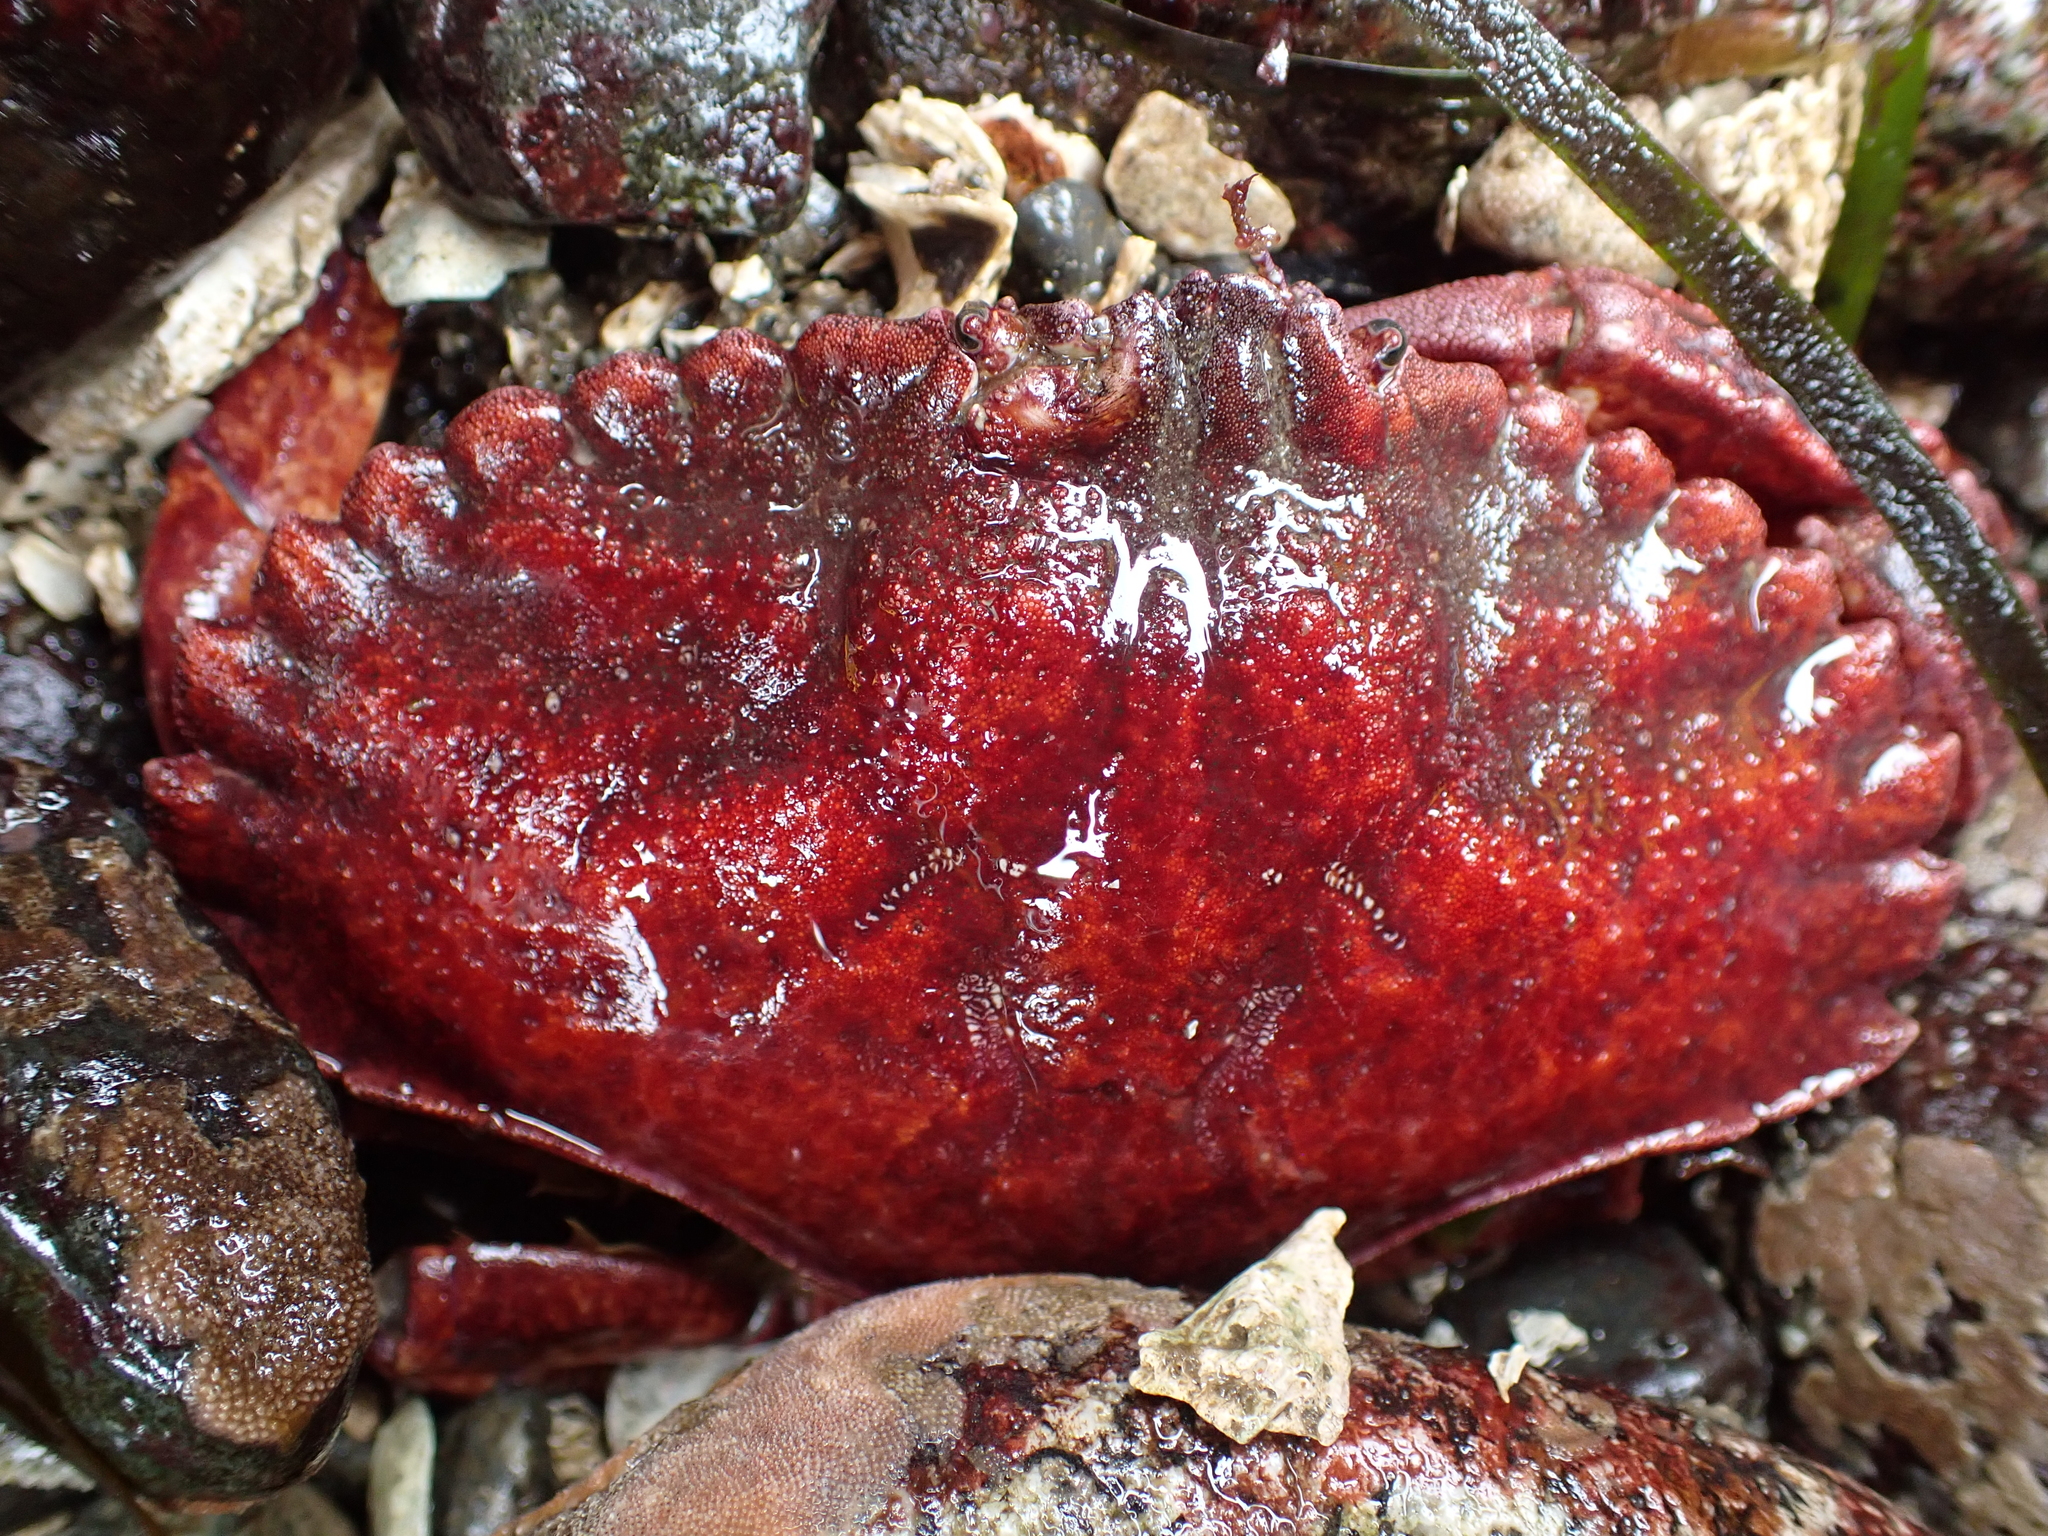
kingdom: Animalia
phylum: Arthropoda
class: Malacostraca
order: Decapoda
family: Cancridae
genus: Cancer
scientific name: Cancer productus
